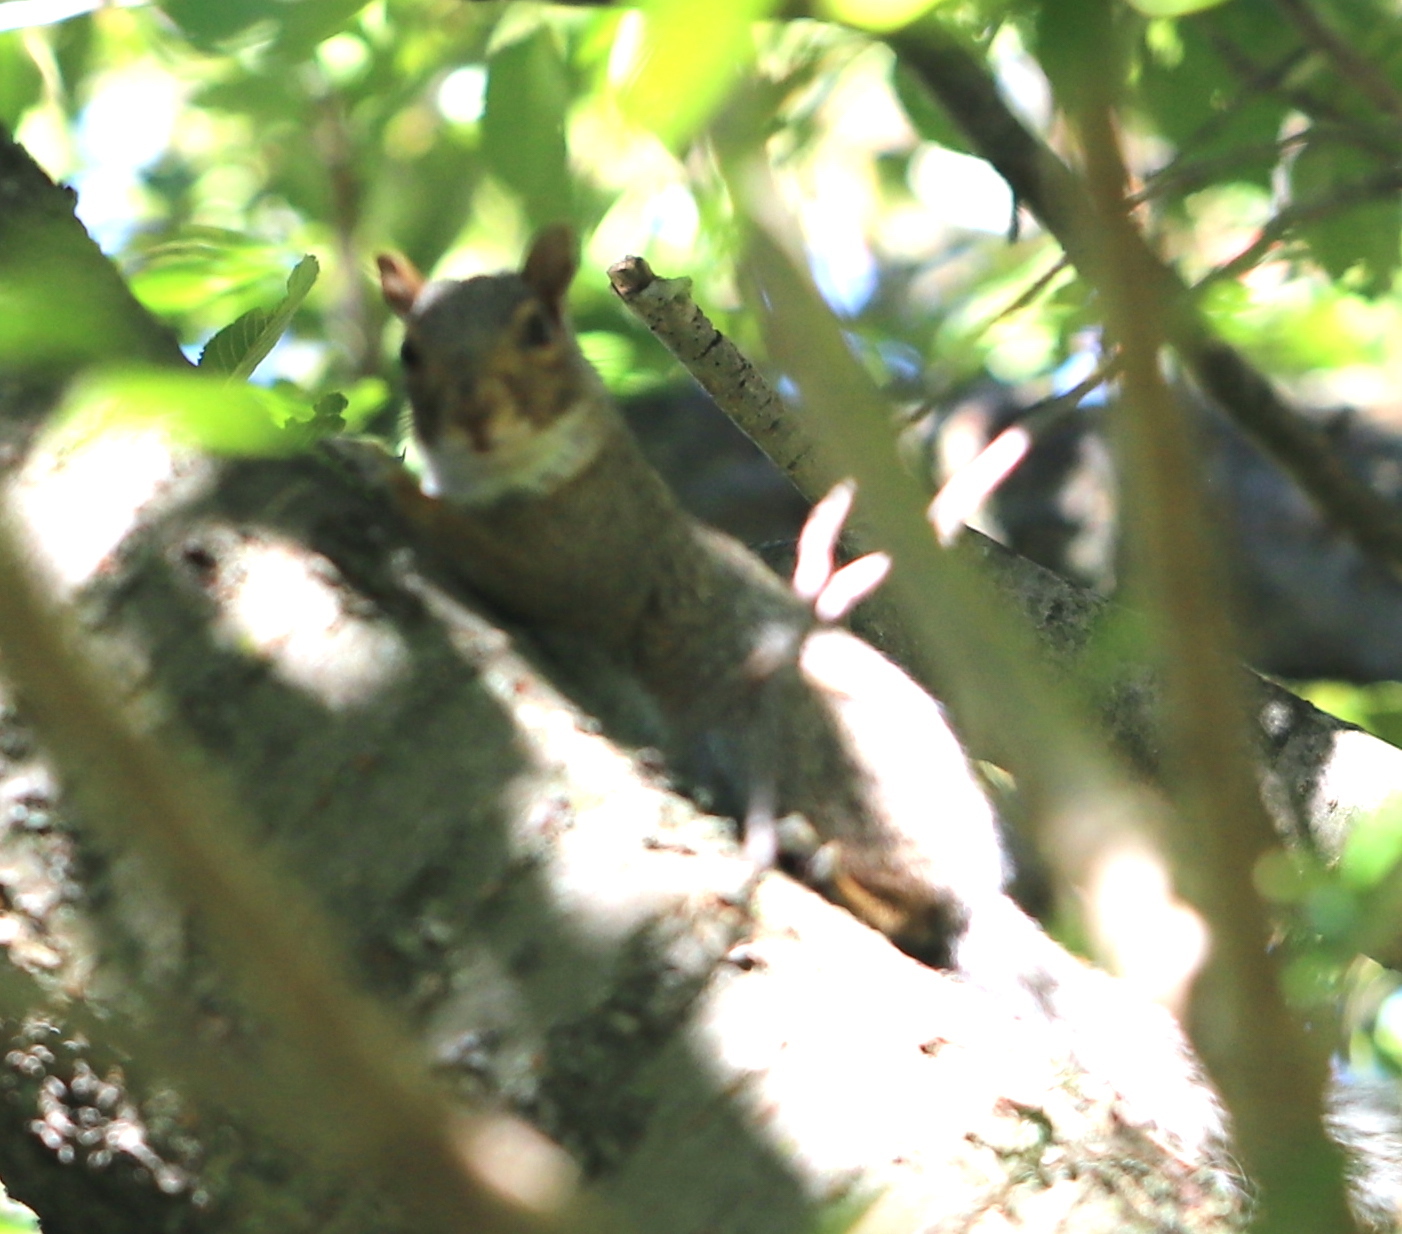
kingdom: Animalia
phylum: Chordata
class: Mammalia
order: Rodentia
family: Sciuridae
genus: Sciurus
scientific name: Sciurus carolinensis
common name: Eastern gray squirrel
